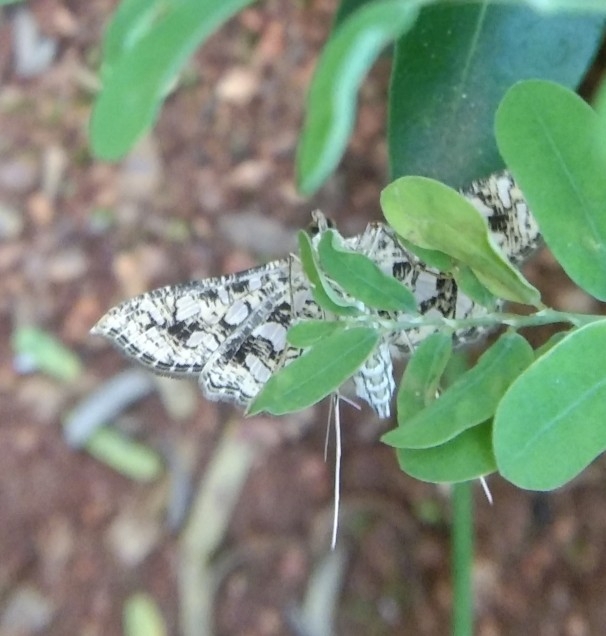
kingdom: Animalia
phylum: Arthropoda
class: Insecta
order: Lepidoptera
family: Crambidae
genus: Nausinoe
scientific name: Nausinoe geometralis
